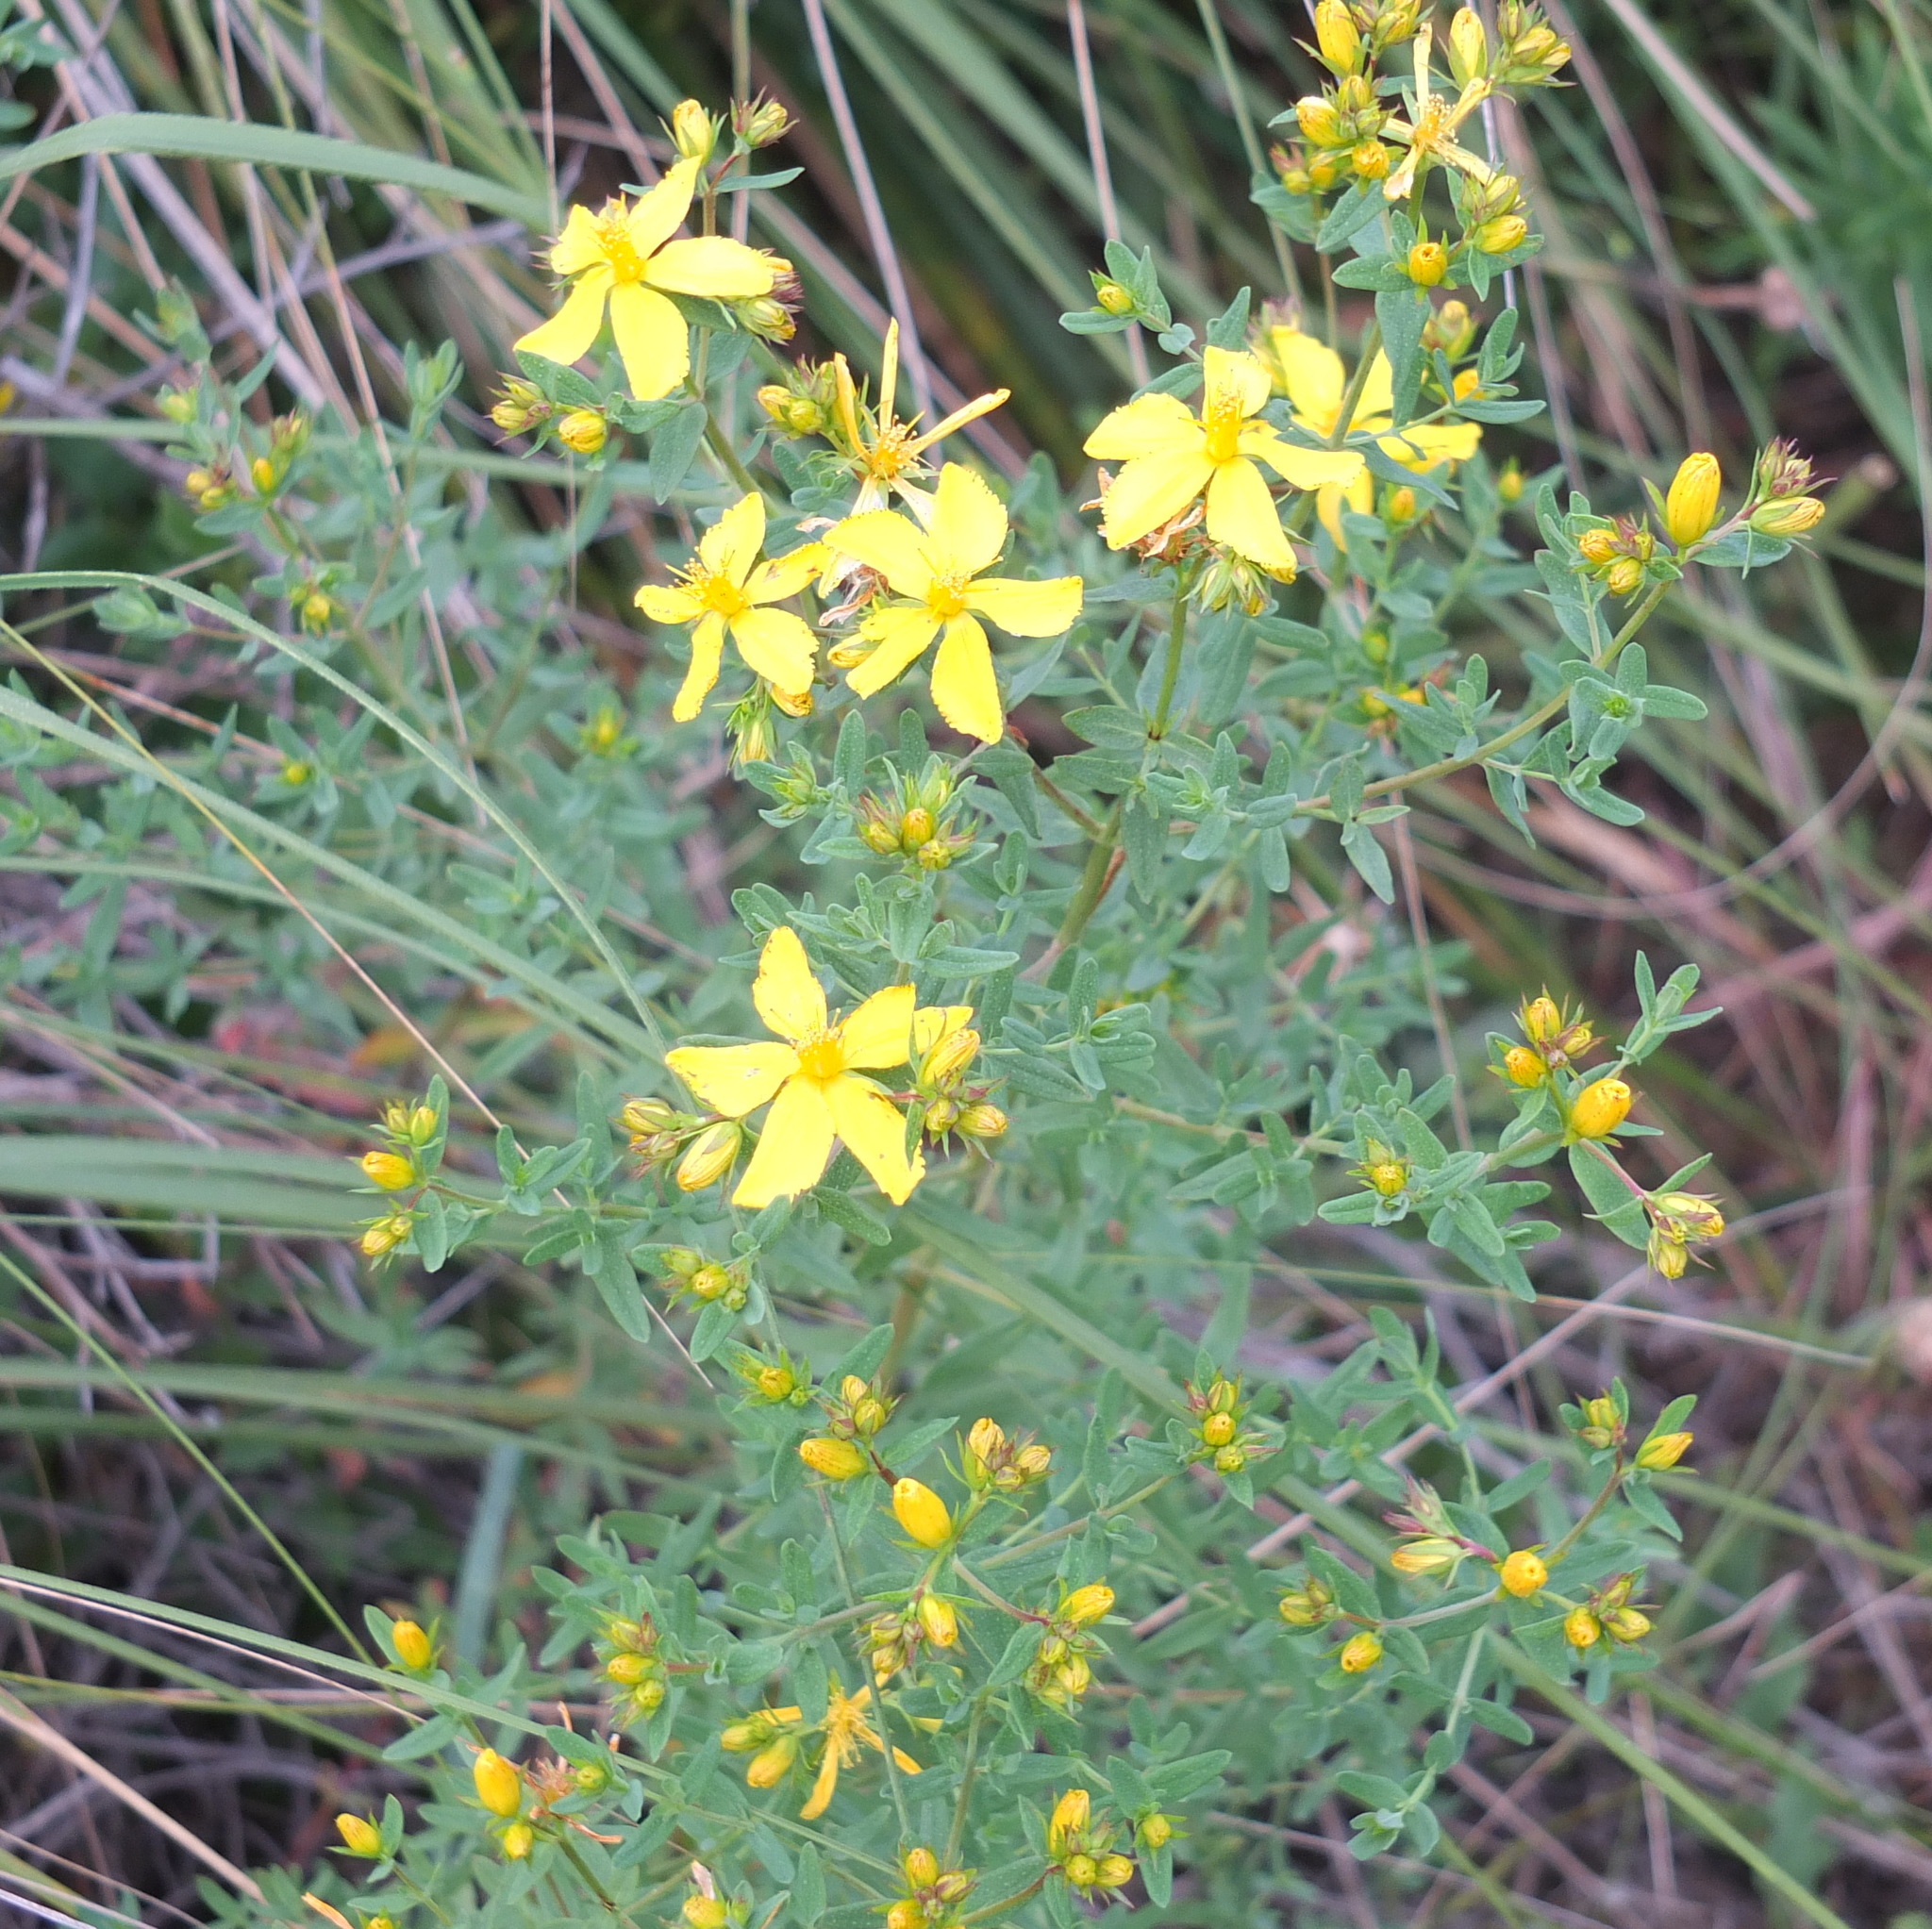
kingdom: Plantae
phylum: Tracheophyta
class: Magnoliopsida
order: Malpighiales
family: Hypericaceae
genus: Hypericum
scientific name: Hypericum perforatum
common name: Common st. johnswort
